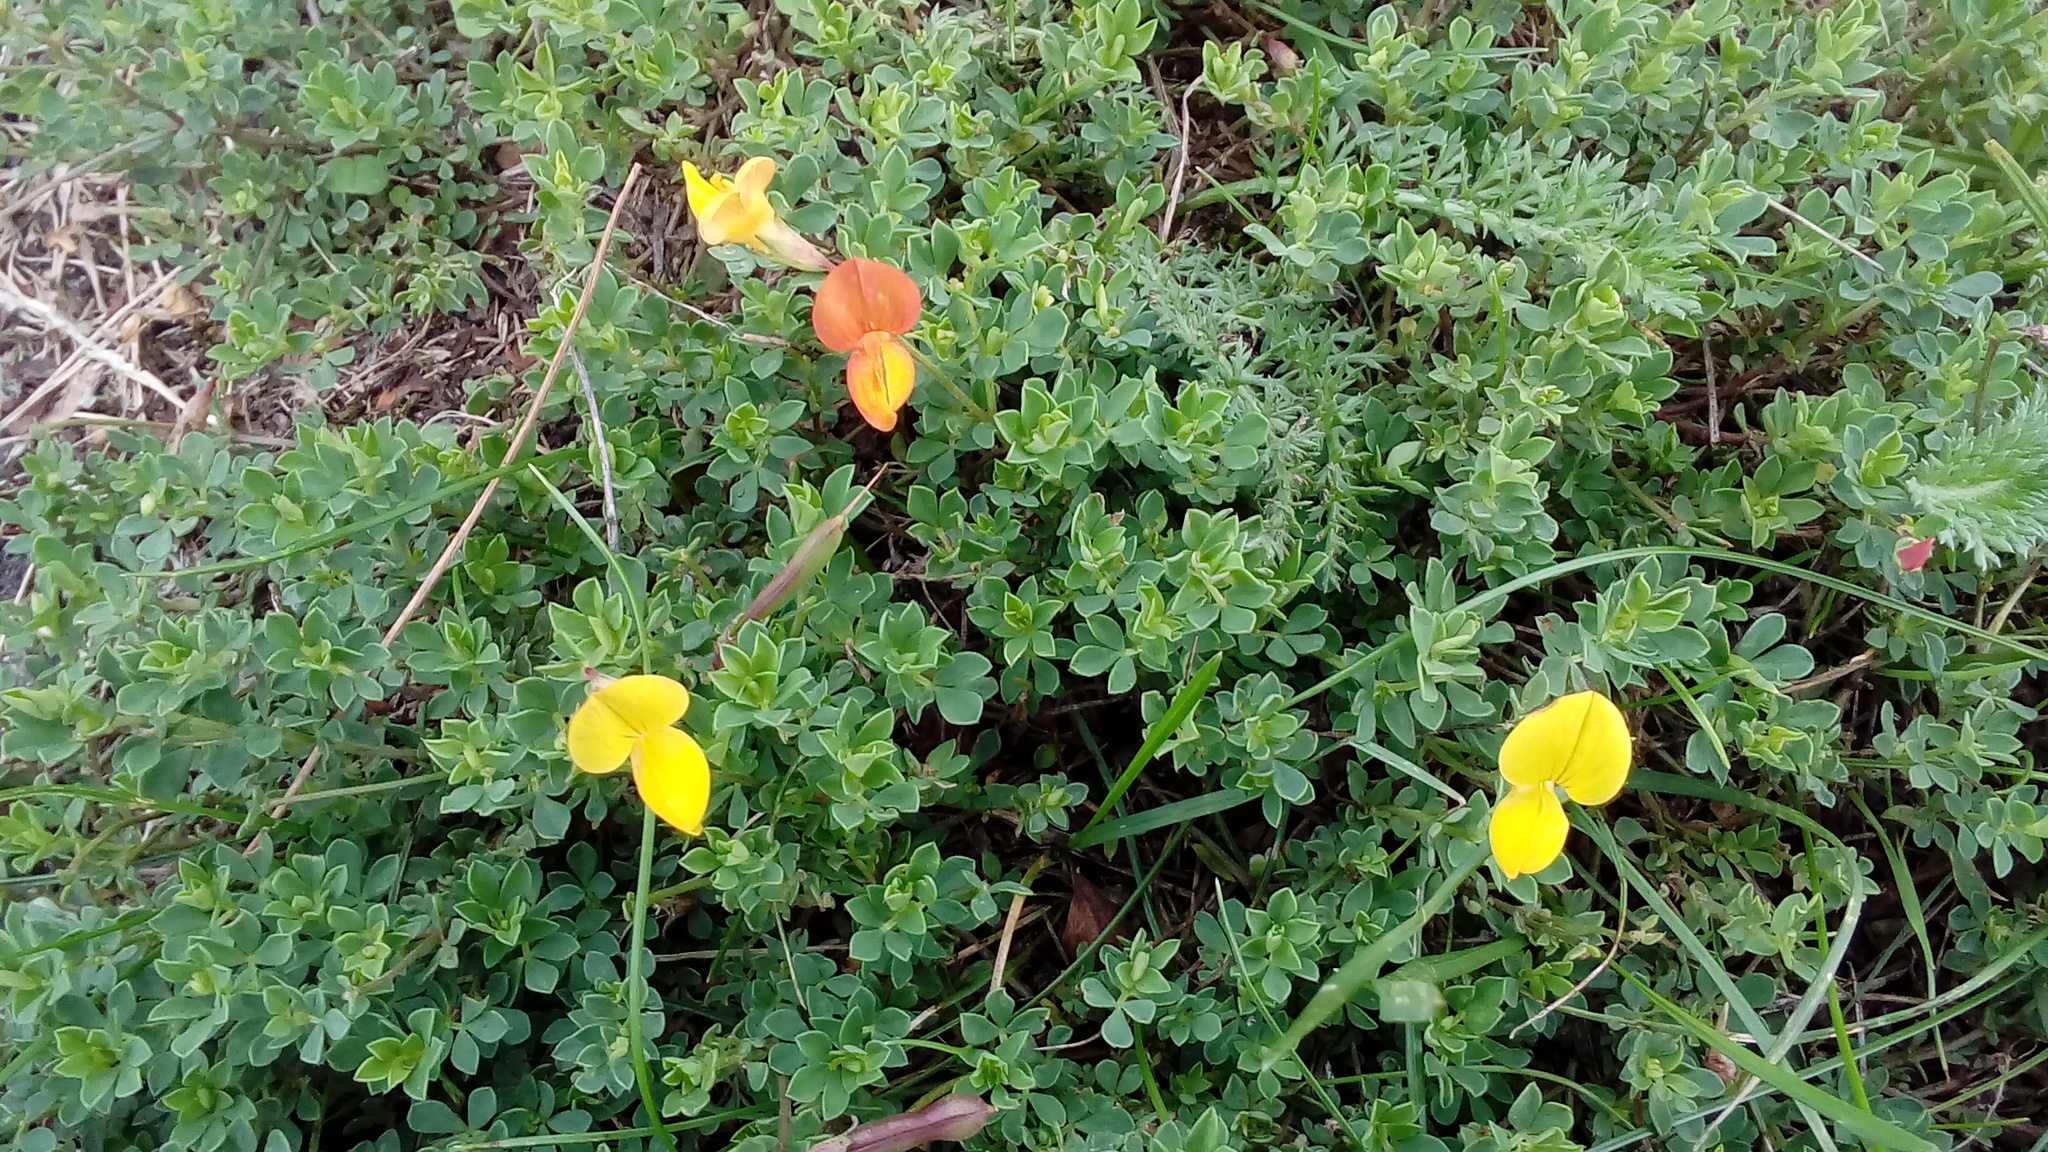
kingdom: Plantae
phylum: Tracheophyta
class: Magnoliopsida
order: Fabales
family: Fabaceae
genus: Lotus
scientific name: Lotus corniculatus
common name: Common bird's-foot-trefoil
